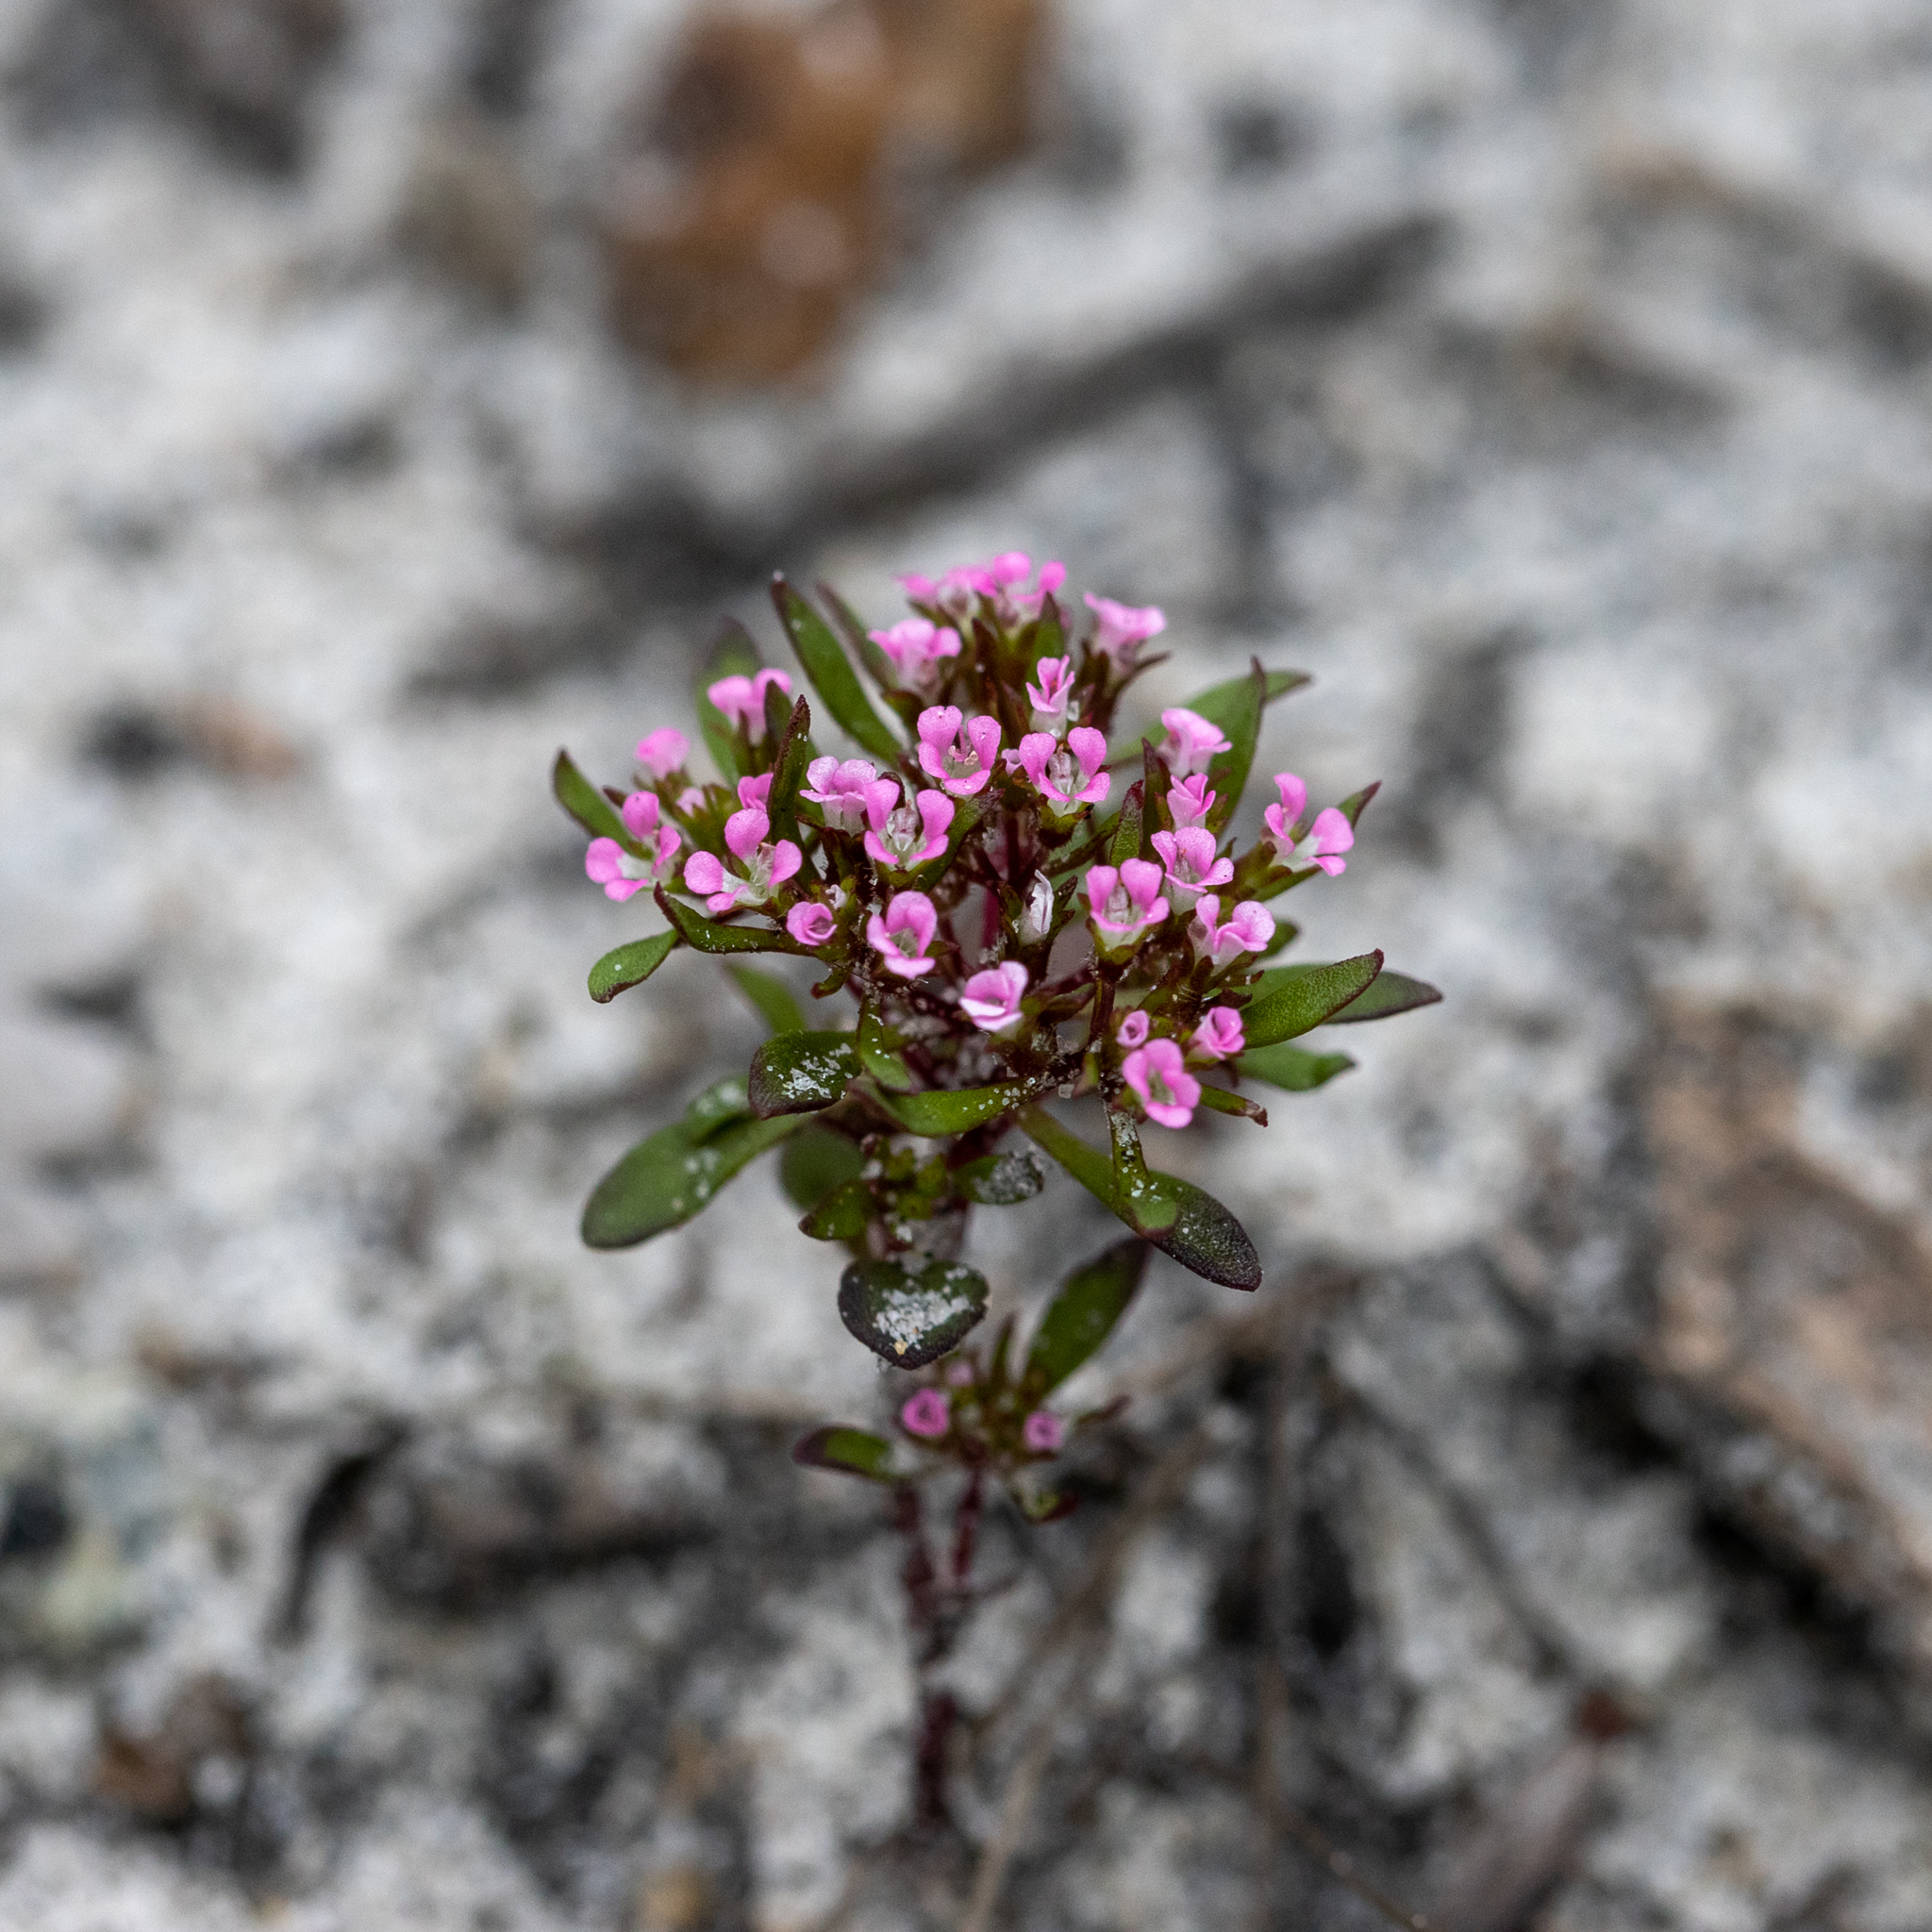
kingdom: Plantae
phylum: Tracheophyta
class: Magnoliopsida
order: Asterales
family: Stylidiaceae
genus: Levenhookia
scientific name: Levenhookia pusilla
